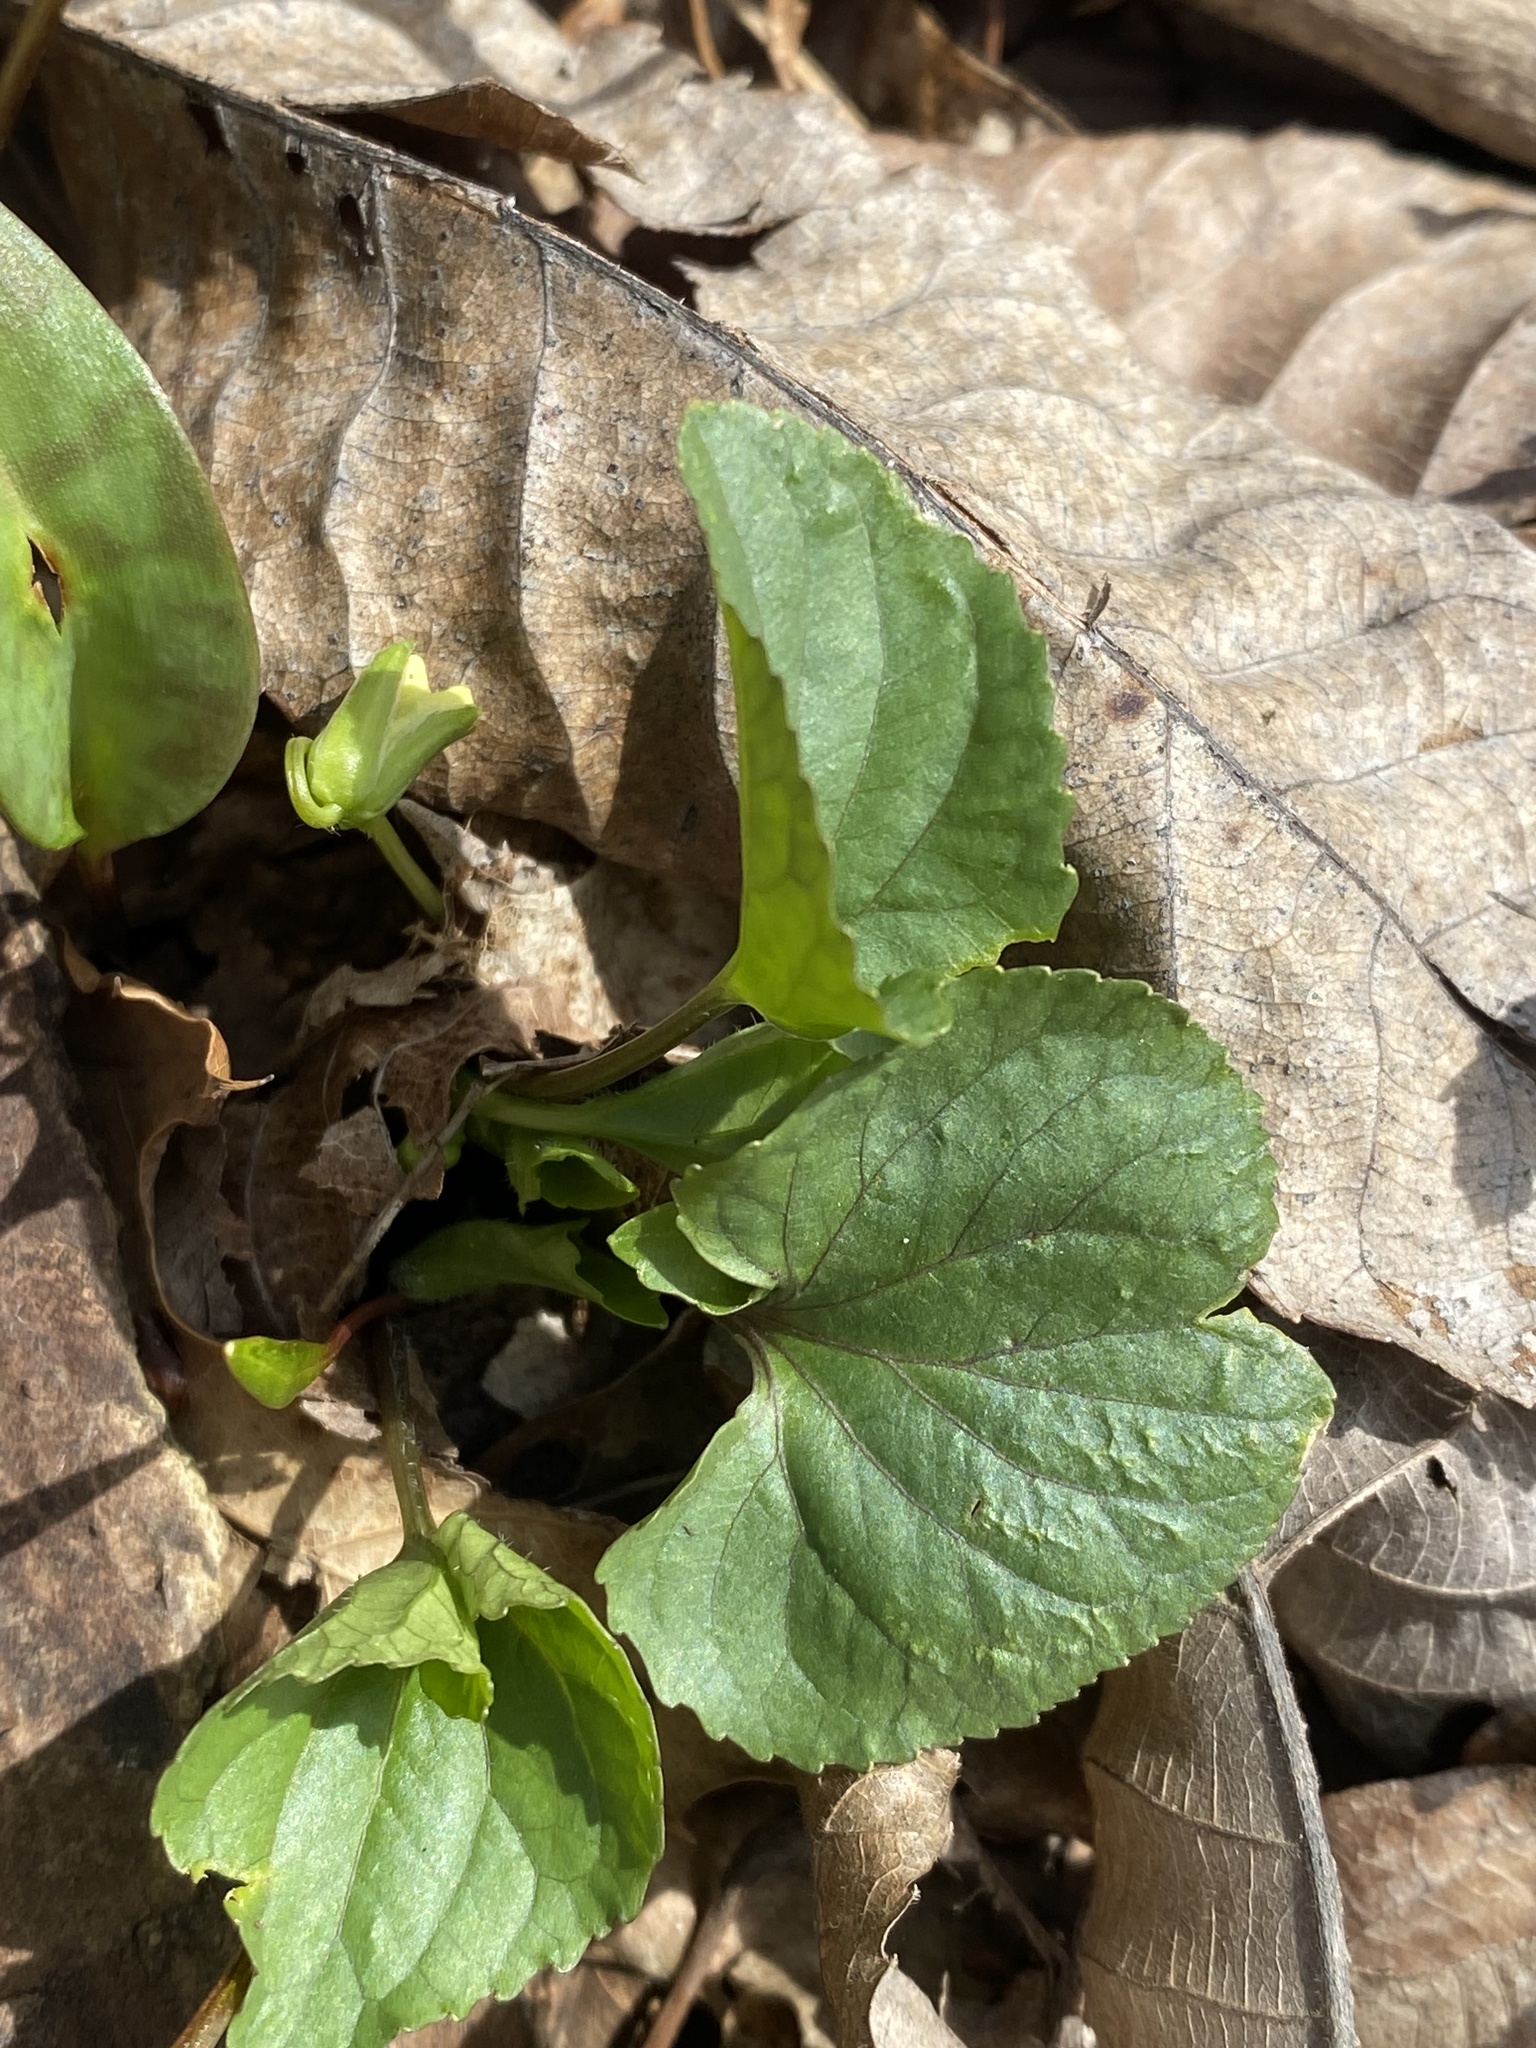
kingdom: Plantae
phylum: Tracheophyta
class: Magnoliopsida
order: Malpighiales
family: Violaceae
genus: Viola
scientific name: Viola eriocarpa
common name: Smooth yellow violet
